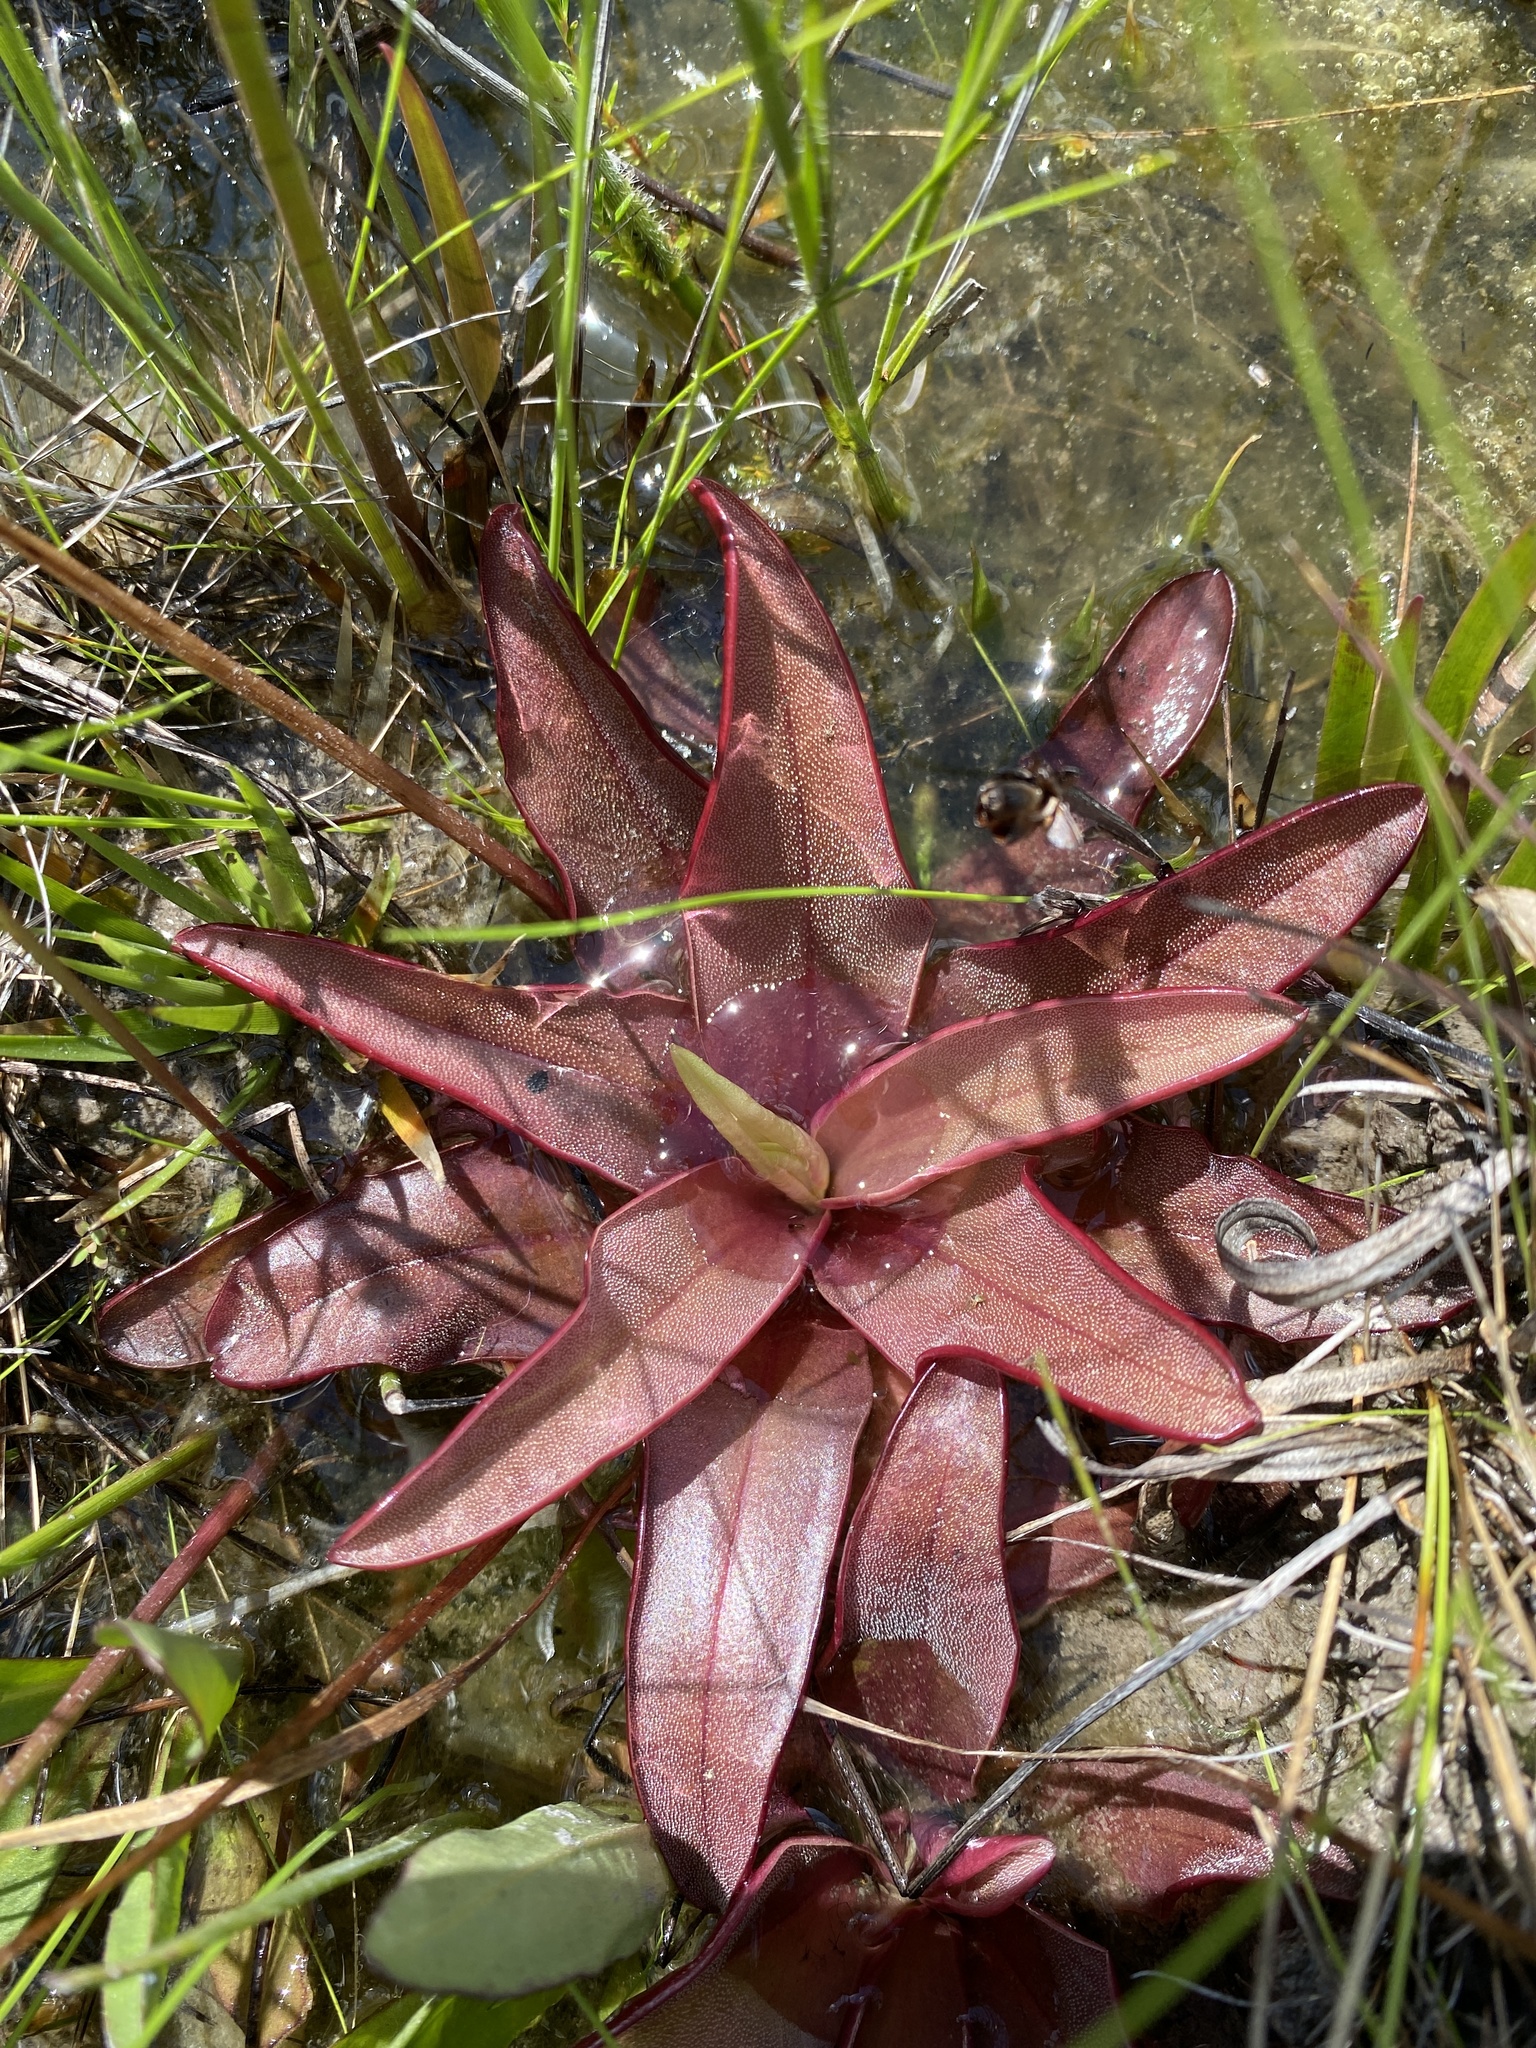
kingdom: Plantae
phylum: Tracheophyta
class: Magnoliopsida
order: Lamiales
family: Lentibulariaceae
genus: Pinguicula
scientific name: Pinguicula planifolia
